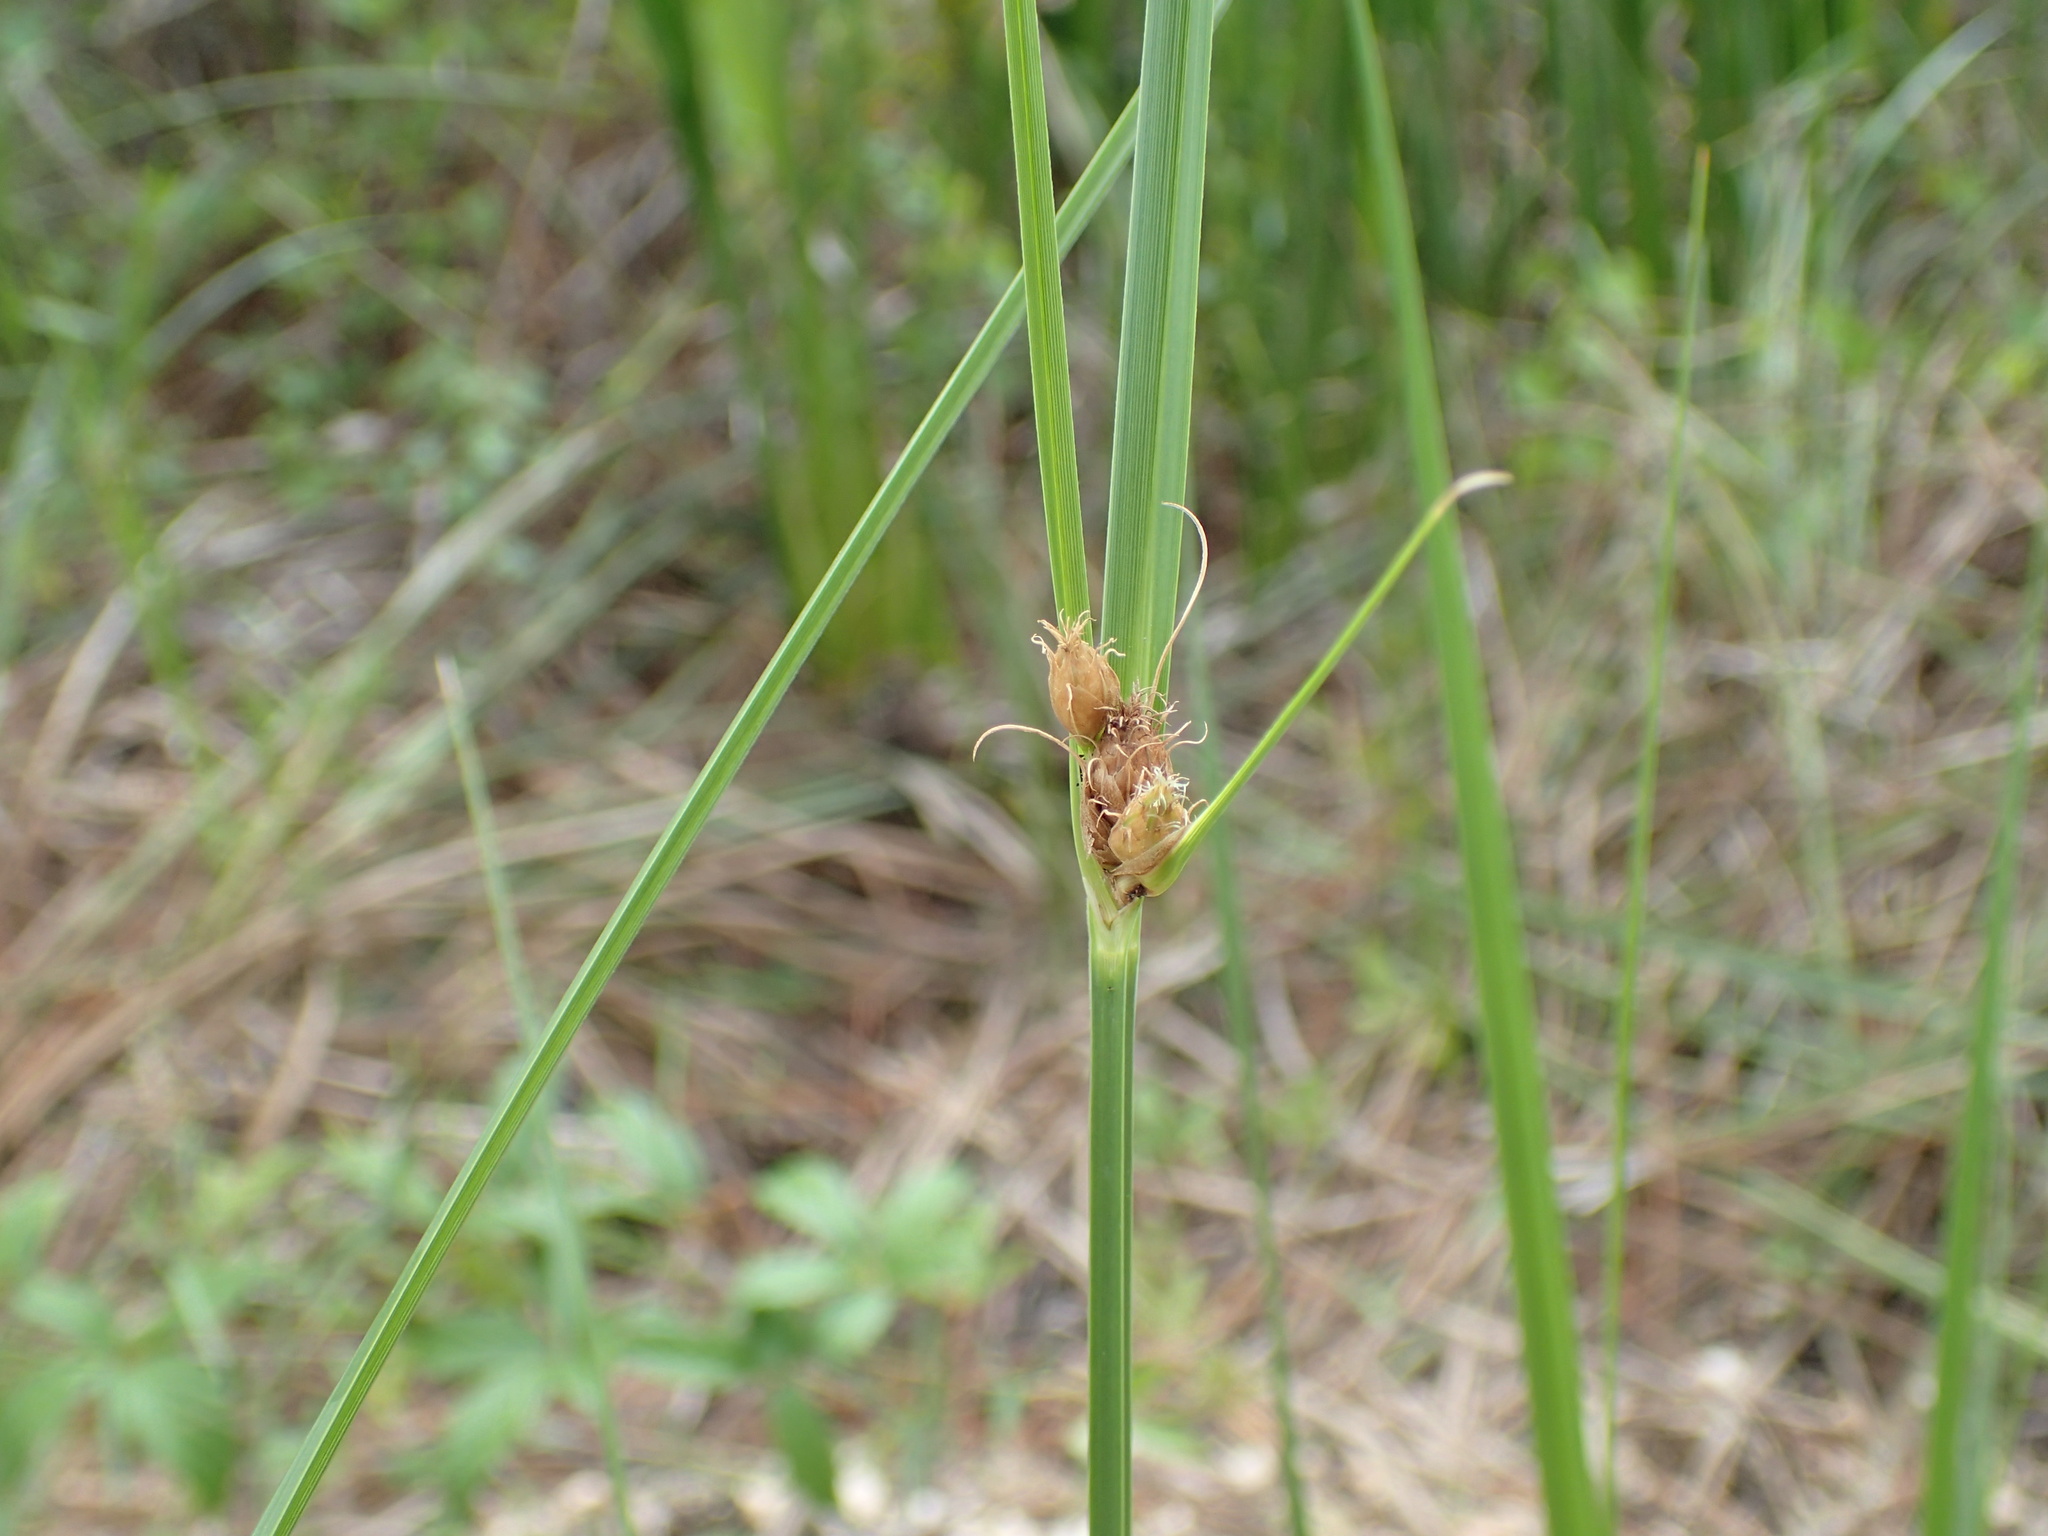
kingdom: Plantae
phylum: Tracheophyta
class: Liliopsida
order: Poales
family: Cyperaceae
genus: Bolboschoenus
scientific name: Bolboschoenus robustus
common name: Seacoast bulrush
